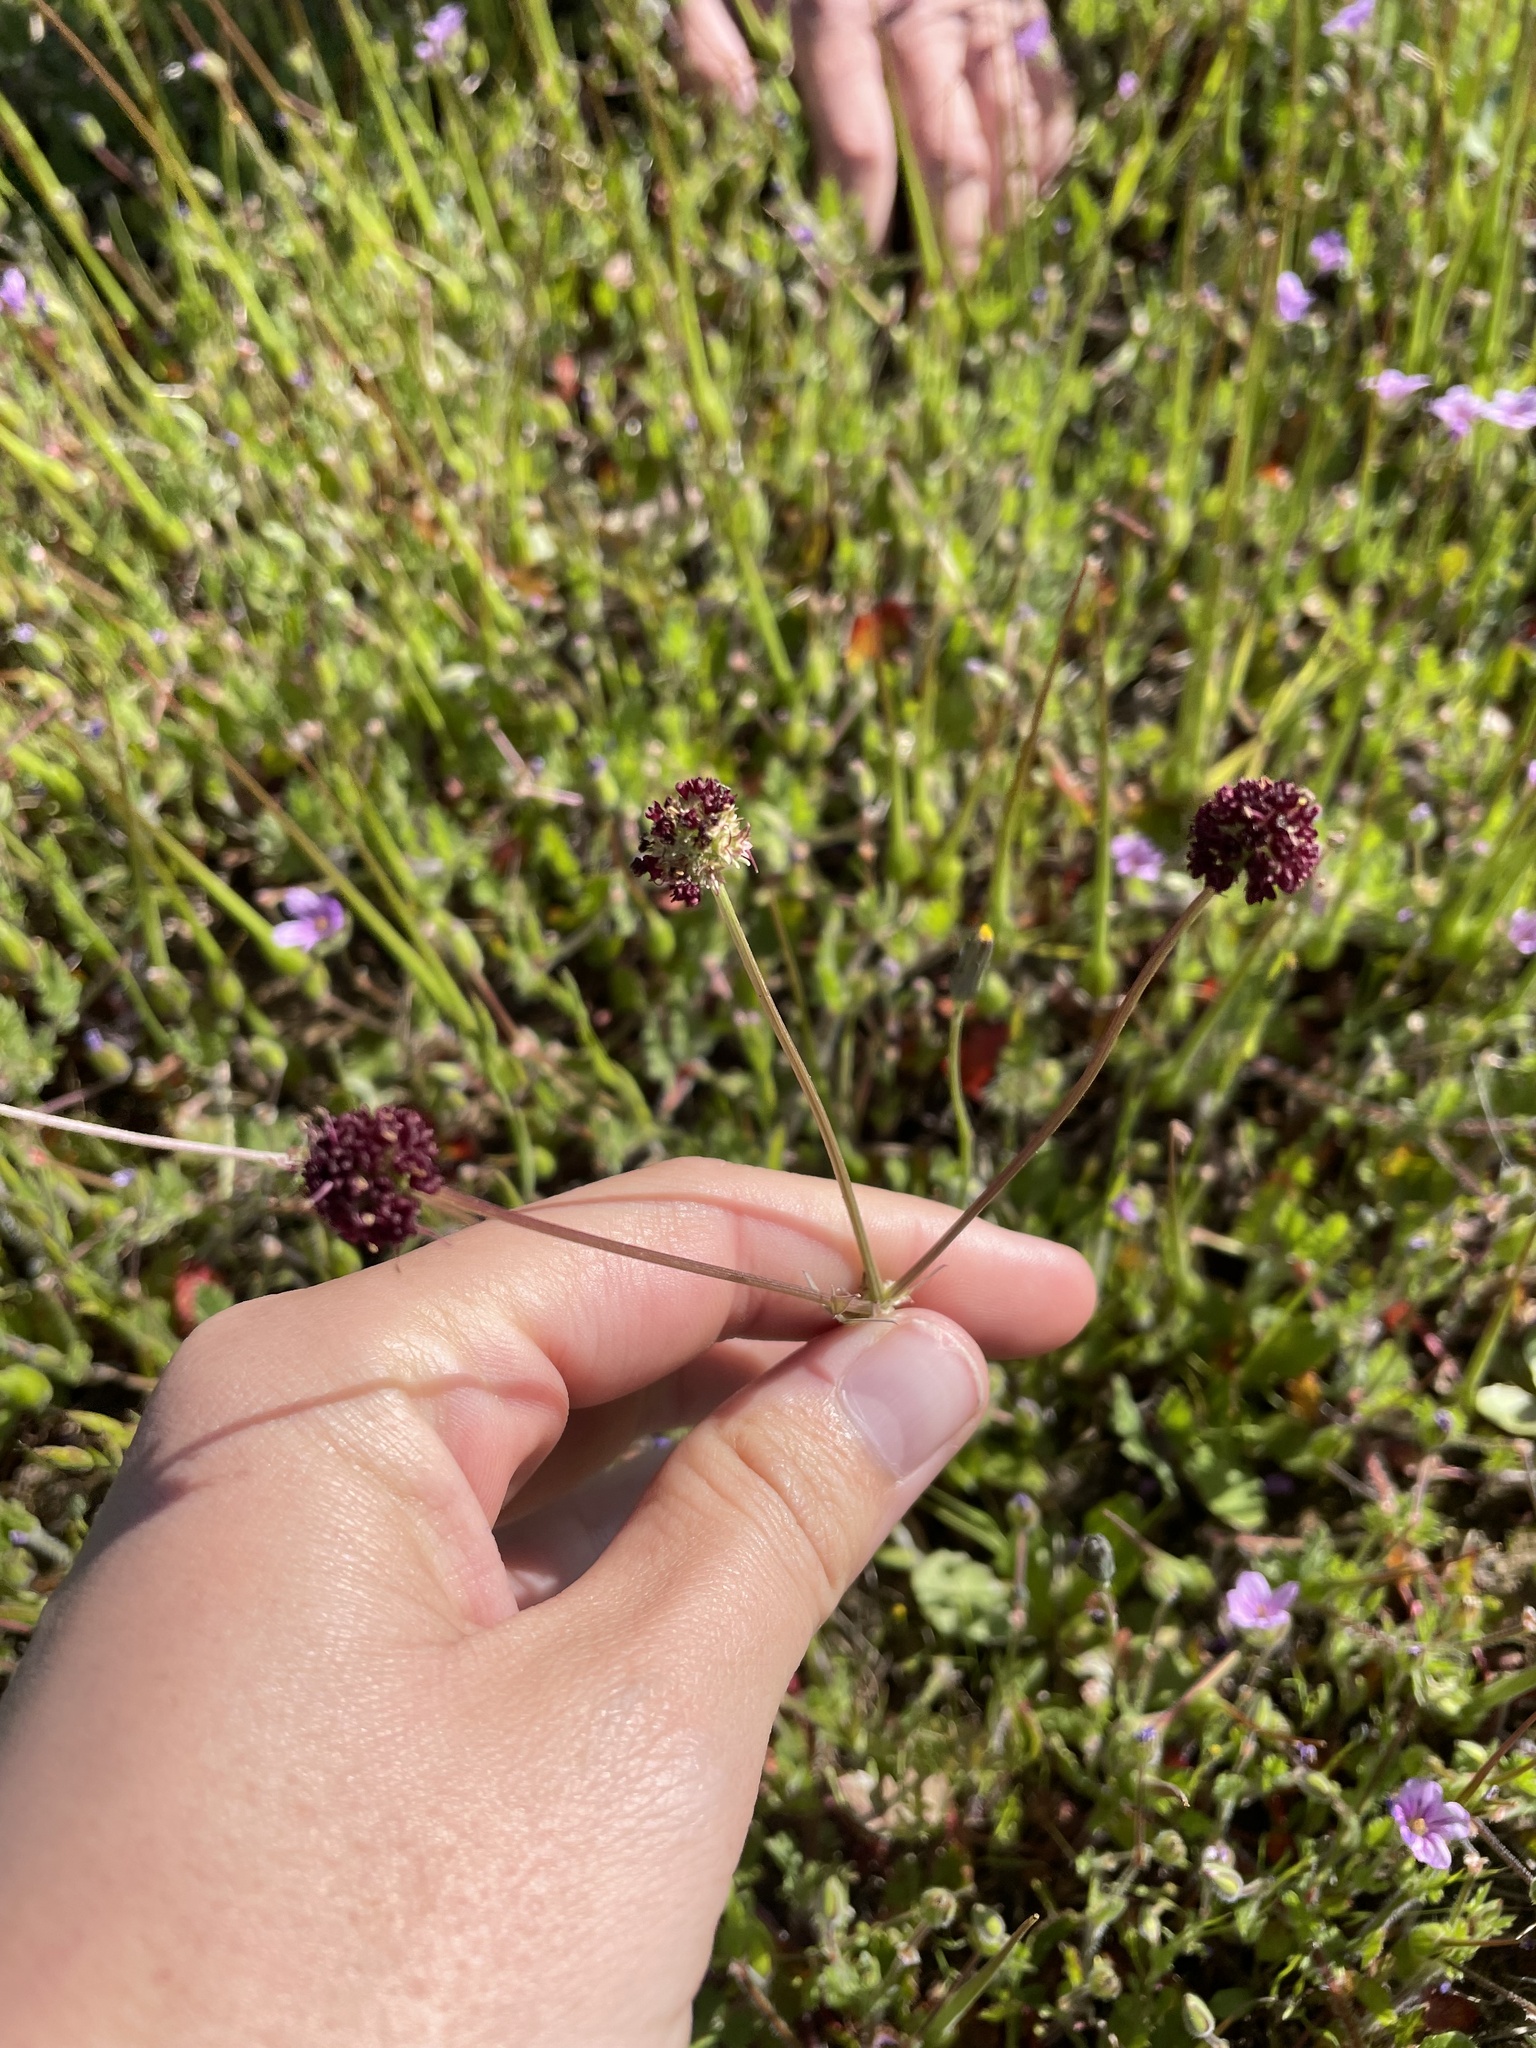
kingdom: Plantae
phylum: Tracheophyta
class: Magnoliopsida
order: Apiales
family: Apiaceae
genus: Sanicula
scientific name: Sanicula bipinnatifida
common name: Shoe-buttons
